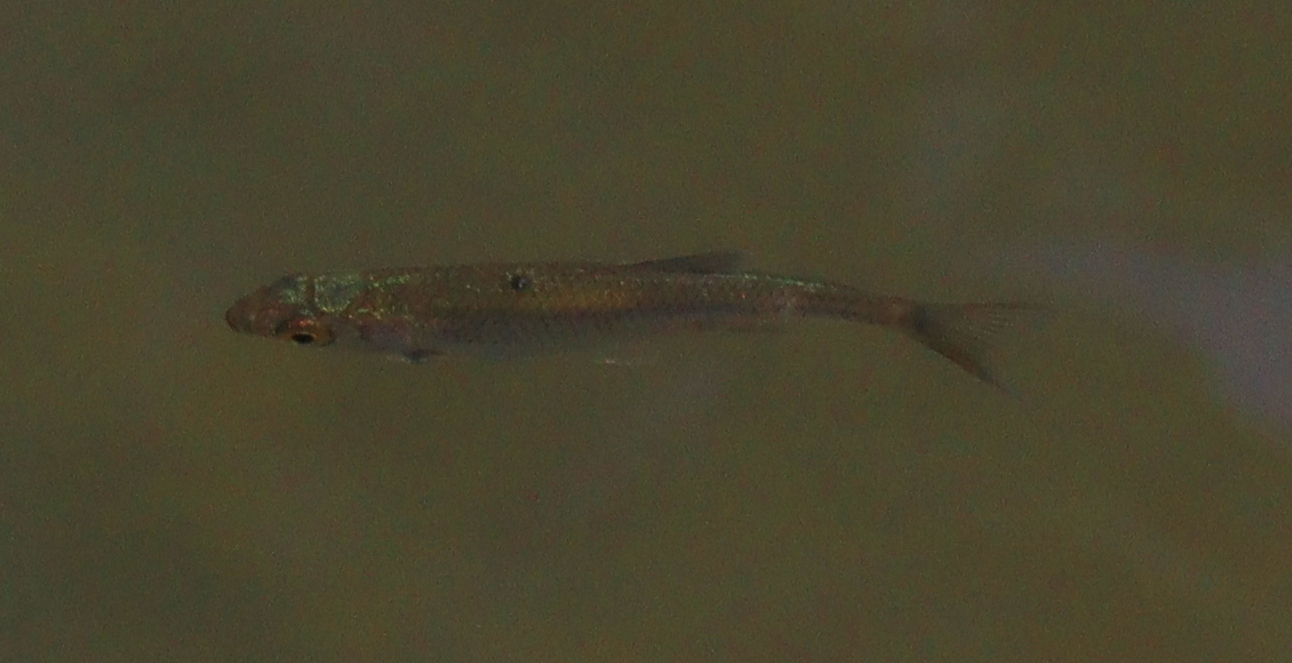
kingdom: Animalia
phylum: Chordata
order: Cypriniformes
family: Cyprinidae
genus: Rutilus
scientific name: Rutilus rutilus
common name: Roach
